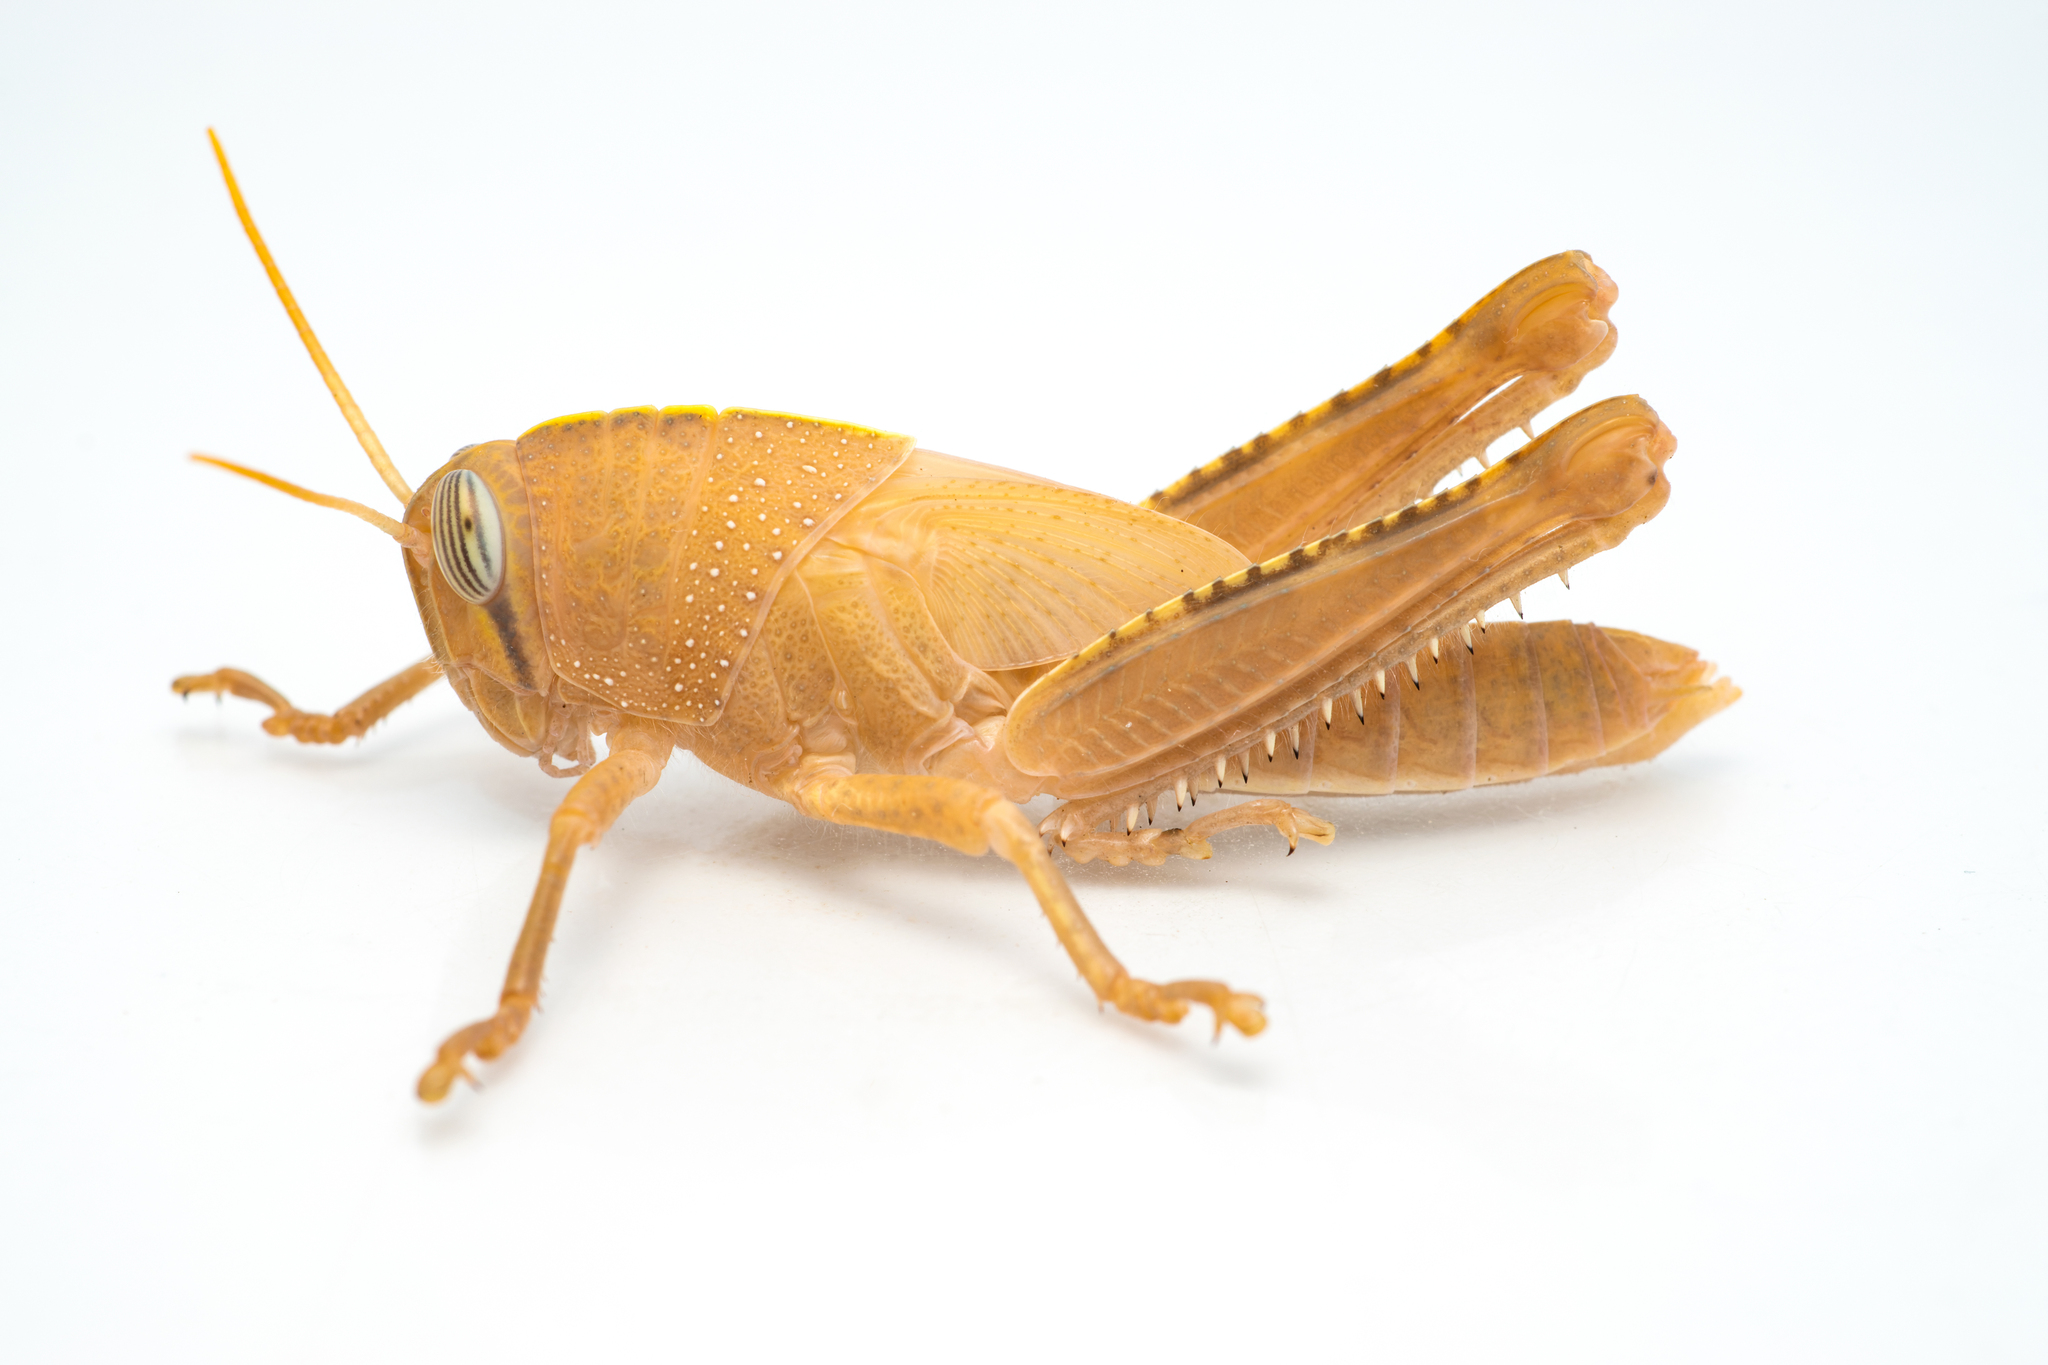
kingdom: Animalia
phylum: Arthropoda
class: Insecta
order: Orthoptera
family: Acrididae
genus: Anacridium
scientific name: Anacridium aegyptium
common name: Egyptian grasshopper
